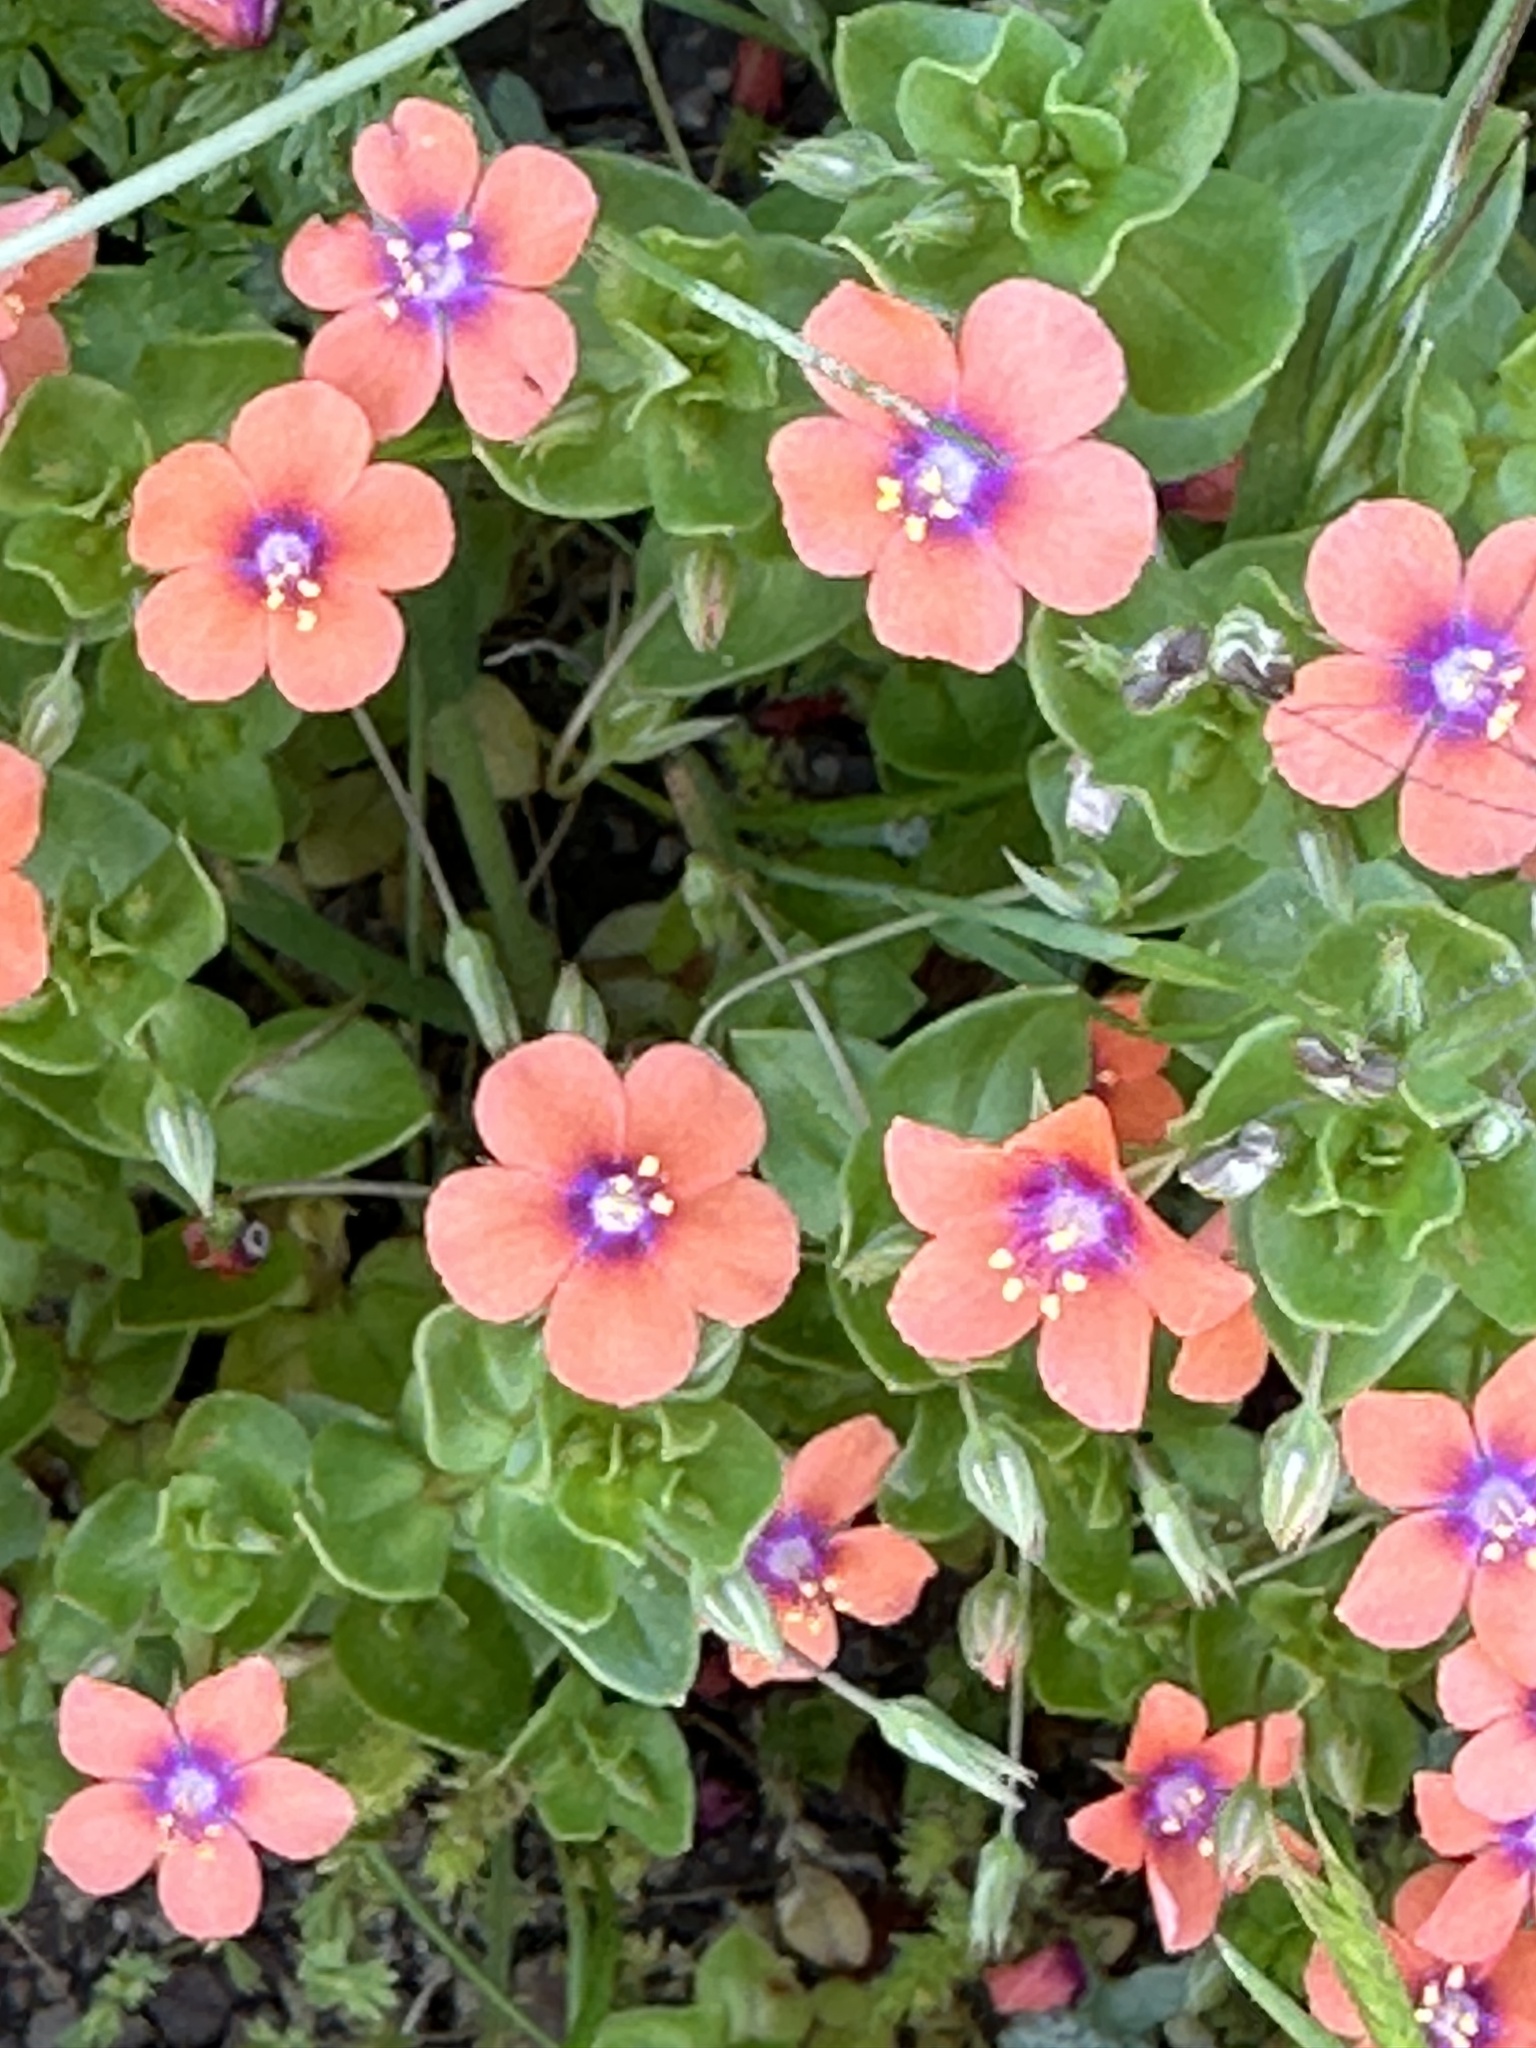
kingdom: Plantae
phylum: Tracheophyta
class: Magnoliopsida
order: Ericales
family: Primulaceae
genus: Lysimachia
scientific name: Lysimachia arvensis
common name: Scarlet pimpernel
